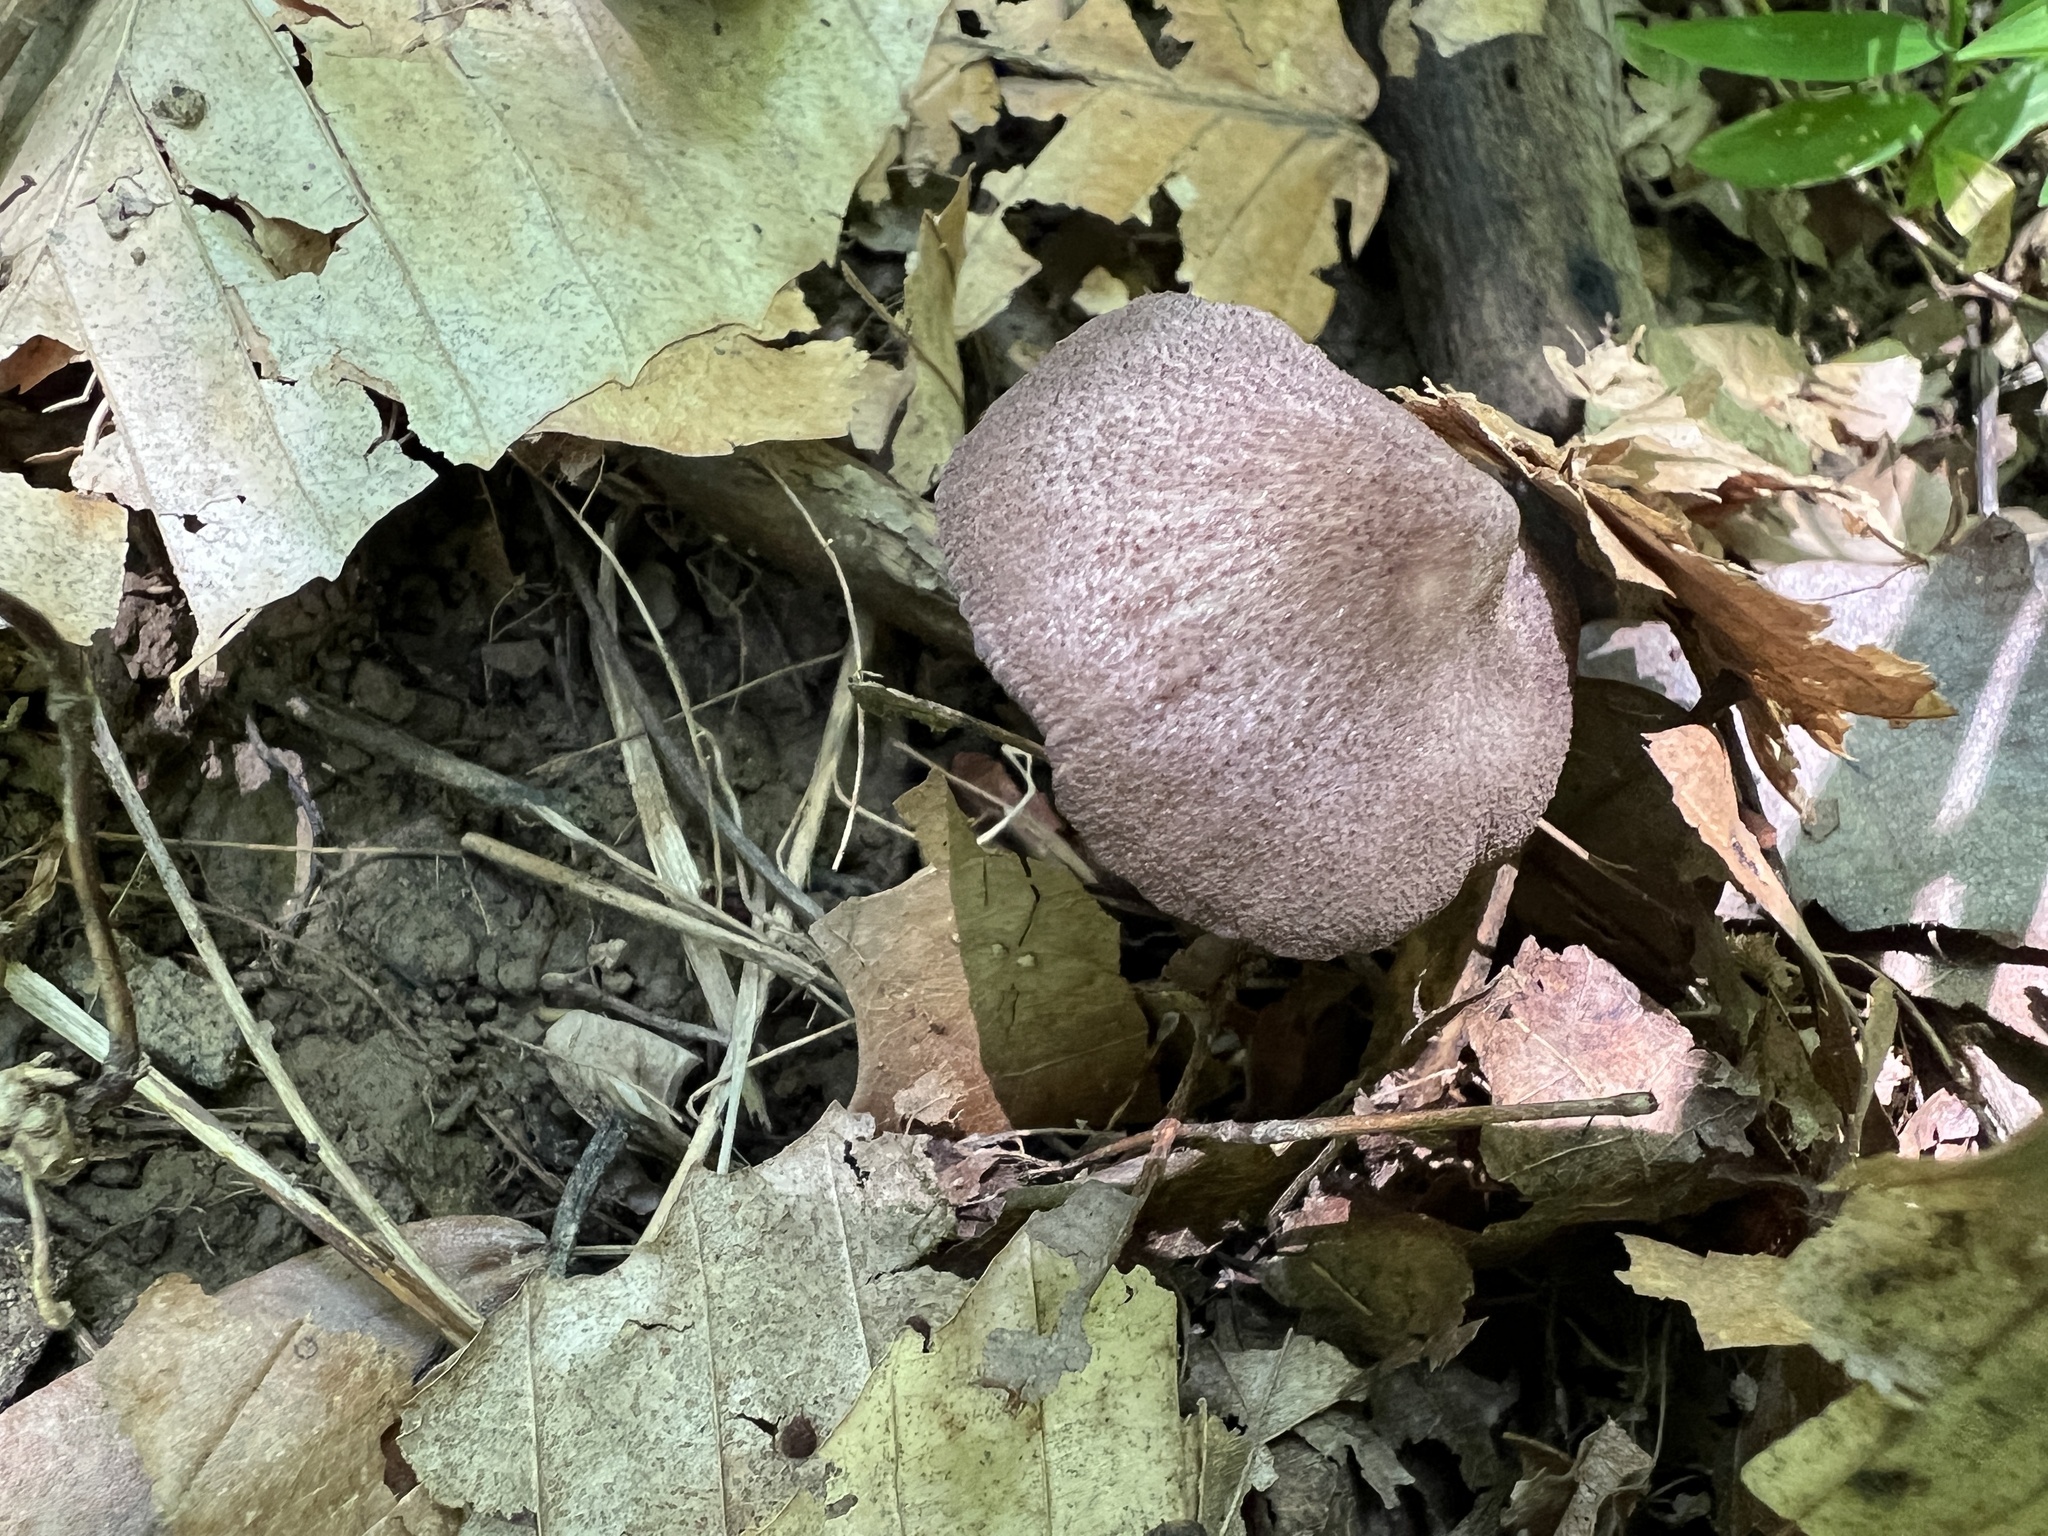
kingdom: Fungi
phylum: Basidiomycota
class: Agaricomycetes
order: Agaricales
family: Entolomataceae
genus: Entoloma
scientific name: Entoloma cyaneum
